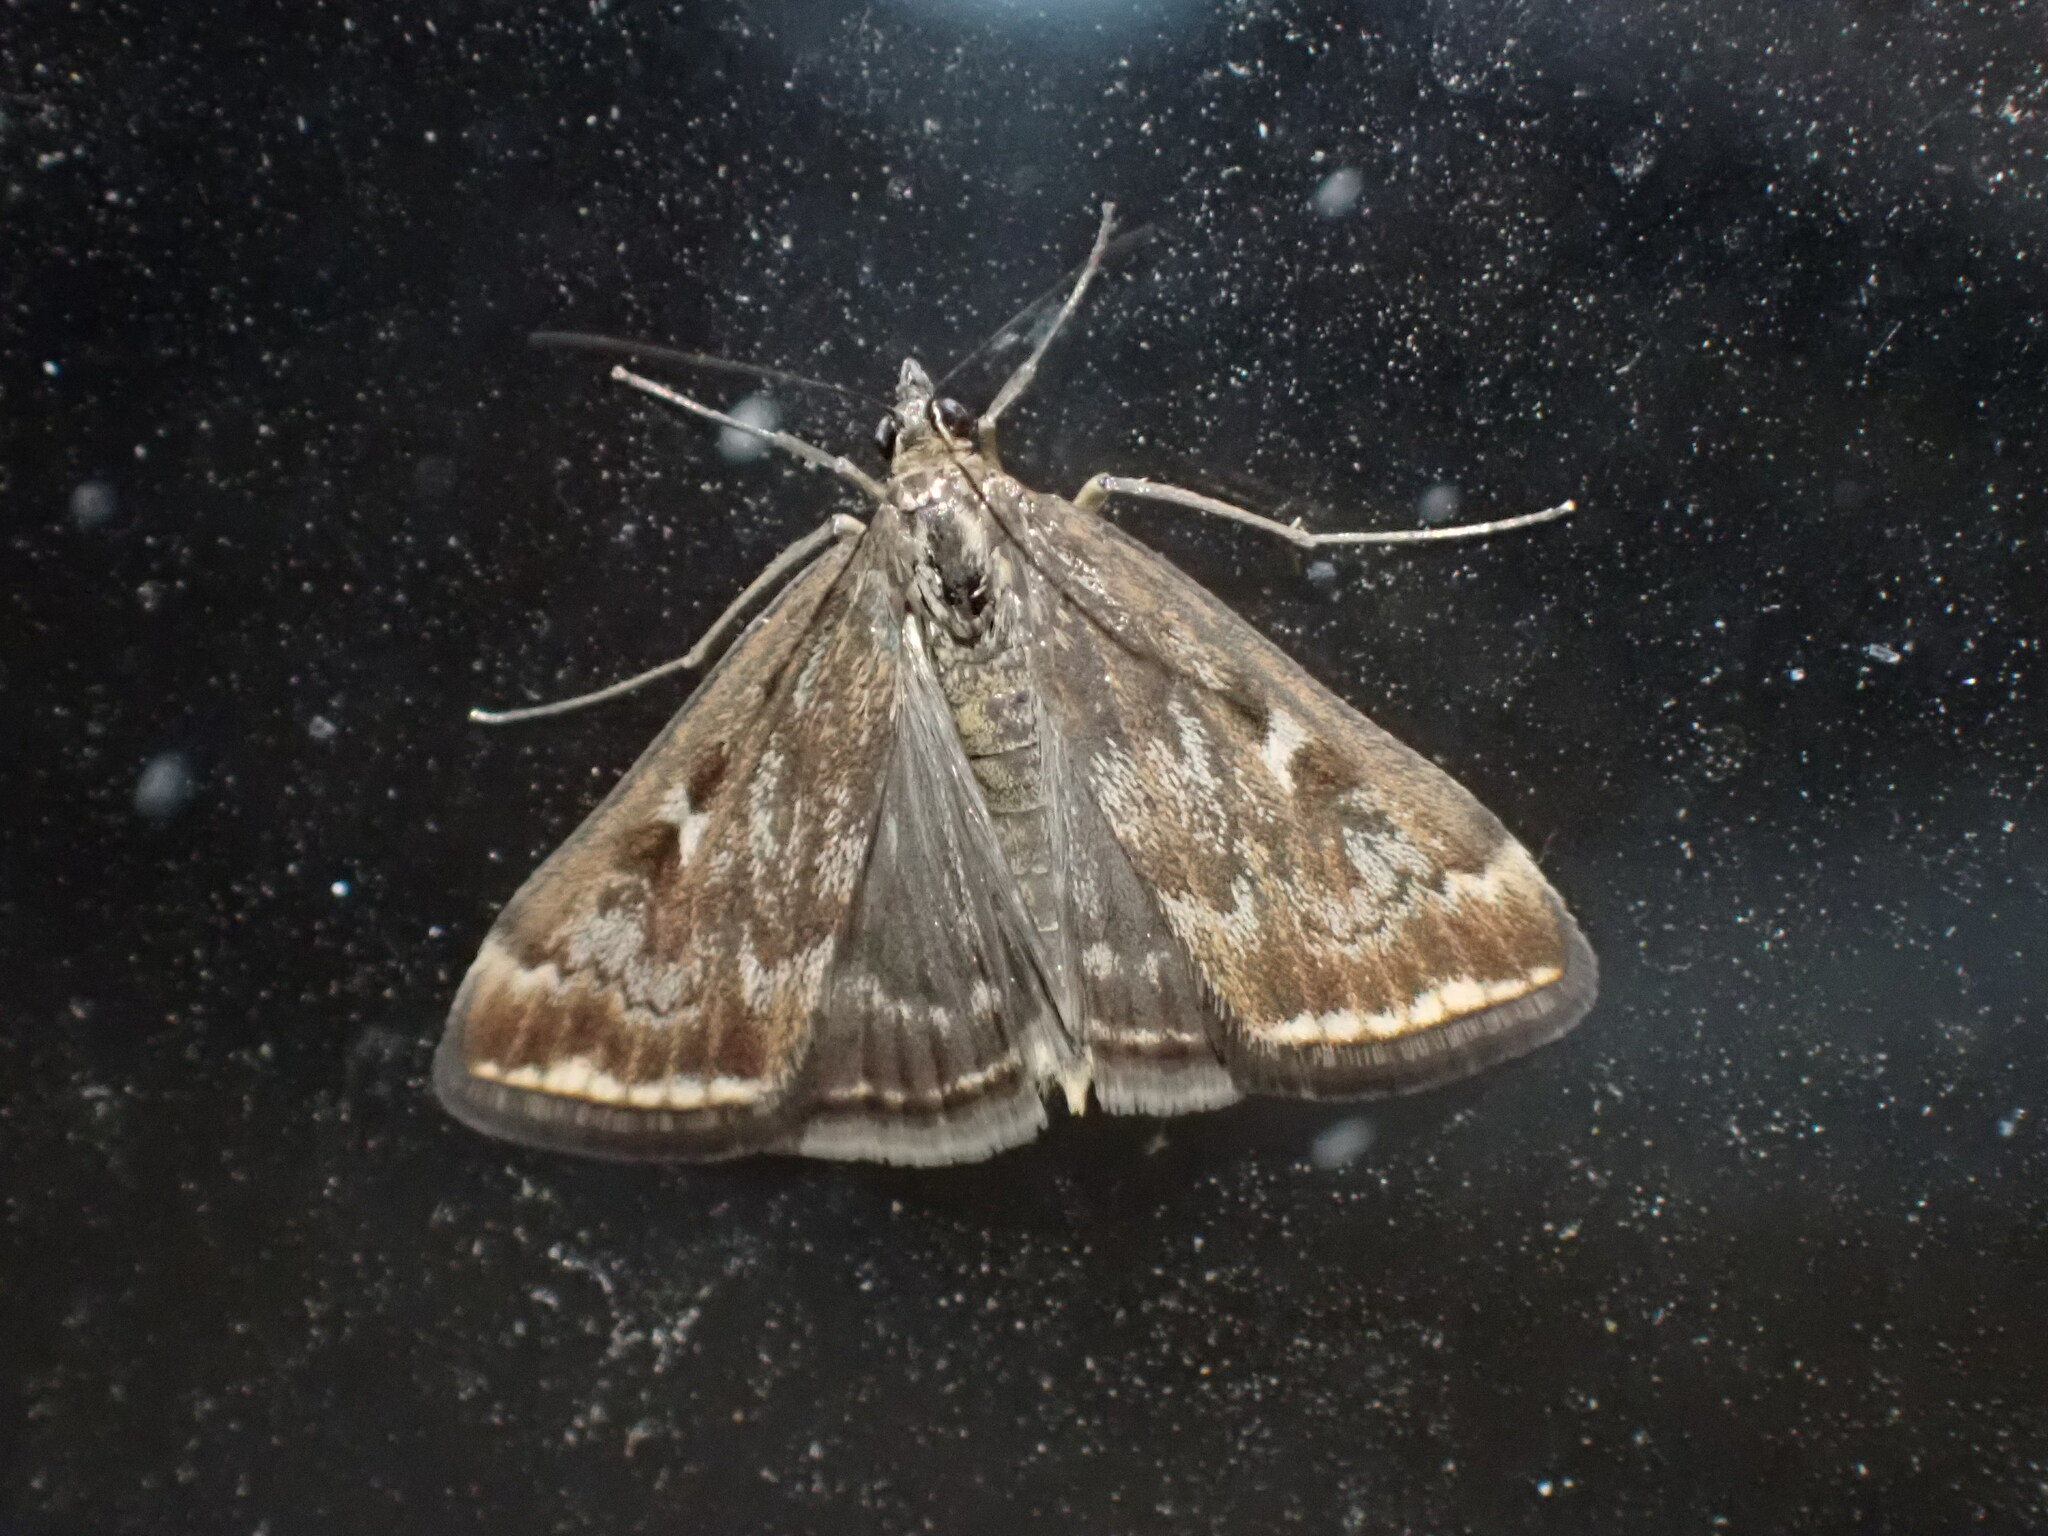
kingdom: Animalia
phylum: Arthropoda
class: Insecta
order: Lepidoptera
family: Crambidae
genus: Loxostege
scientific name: Loxostege
